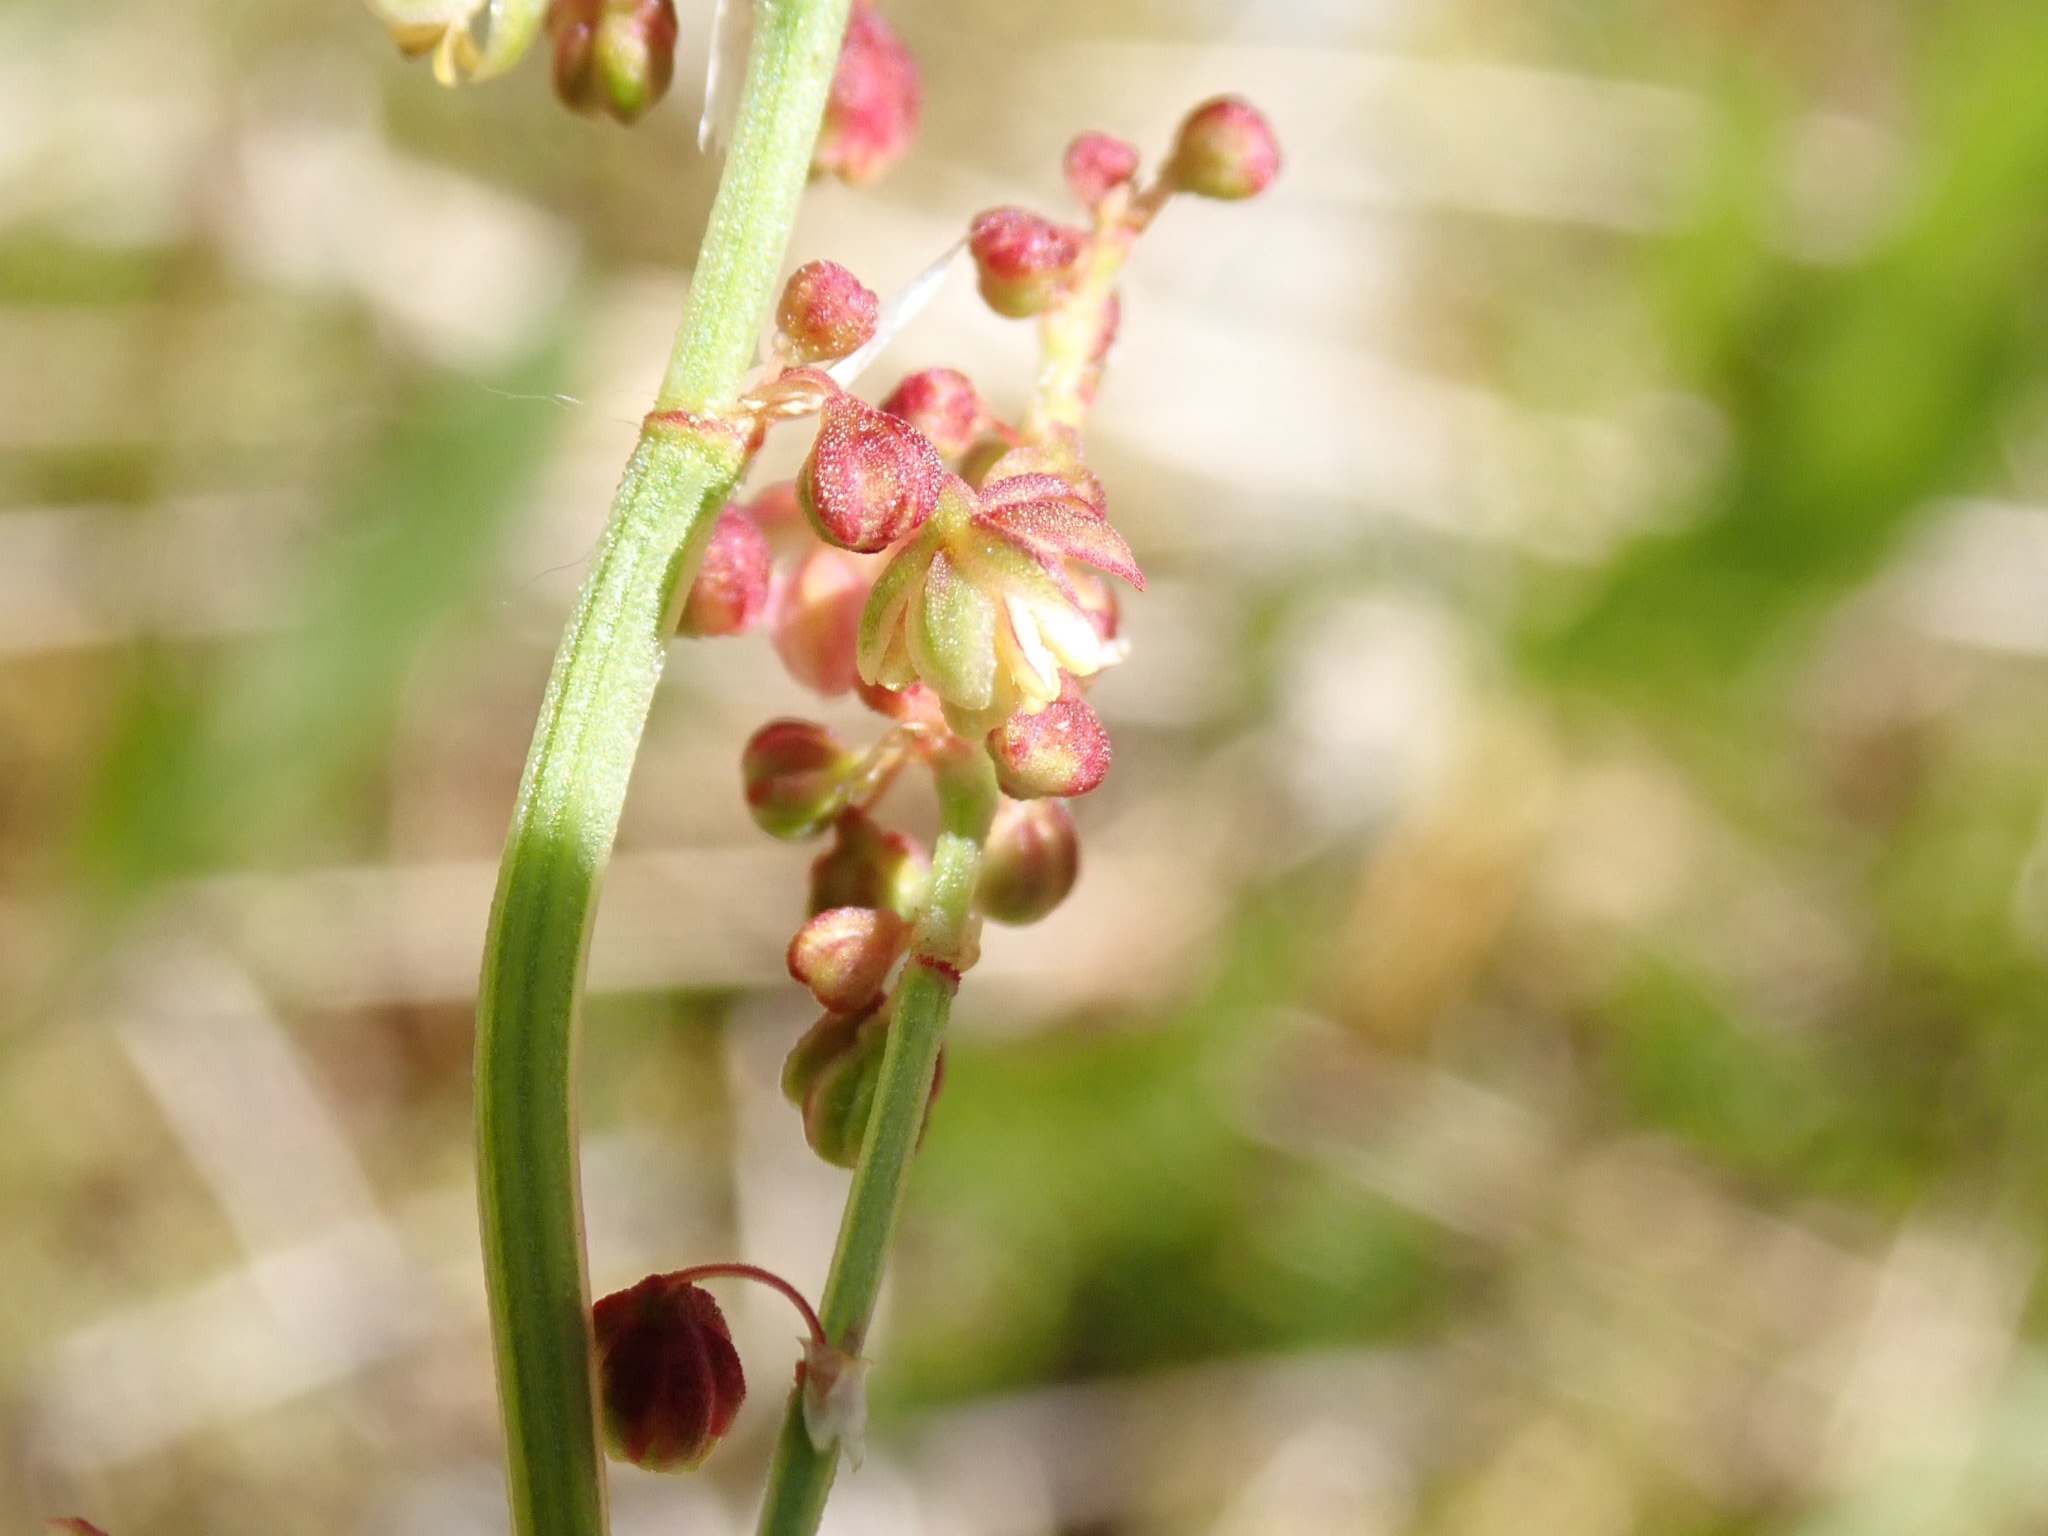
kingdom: Plantae
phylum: Tracheophyta
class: Magnoliopsida
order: Caryophyllales
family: Polygonaceae
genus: Rumex
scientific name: Rumex acetosella
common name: Common sheep sorrel
